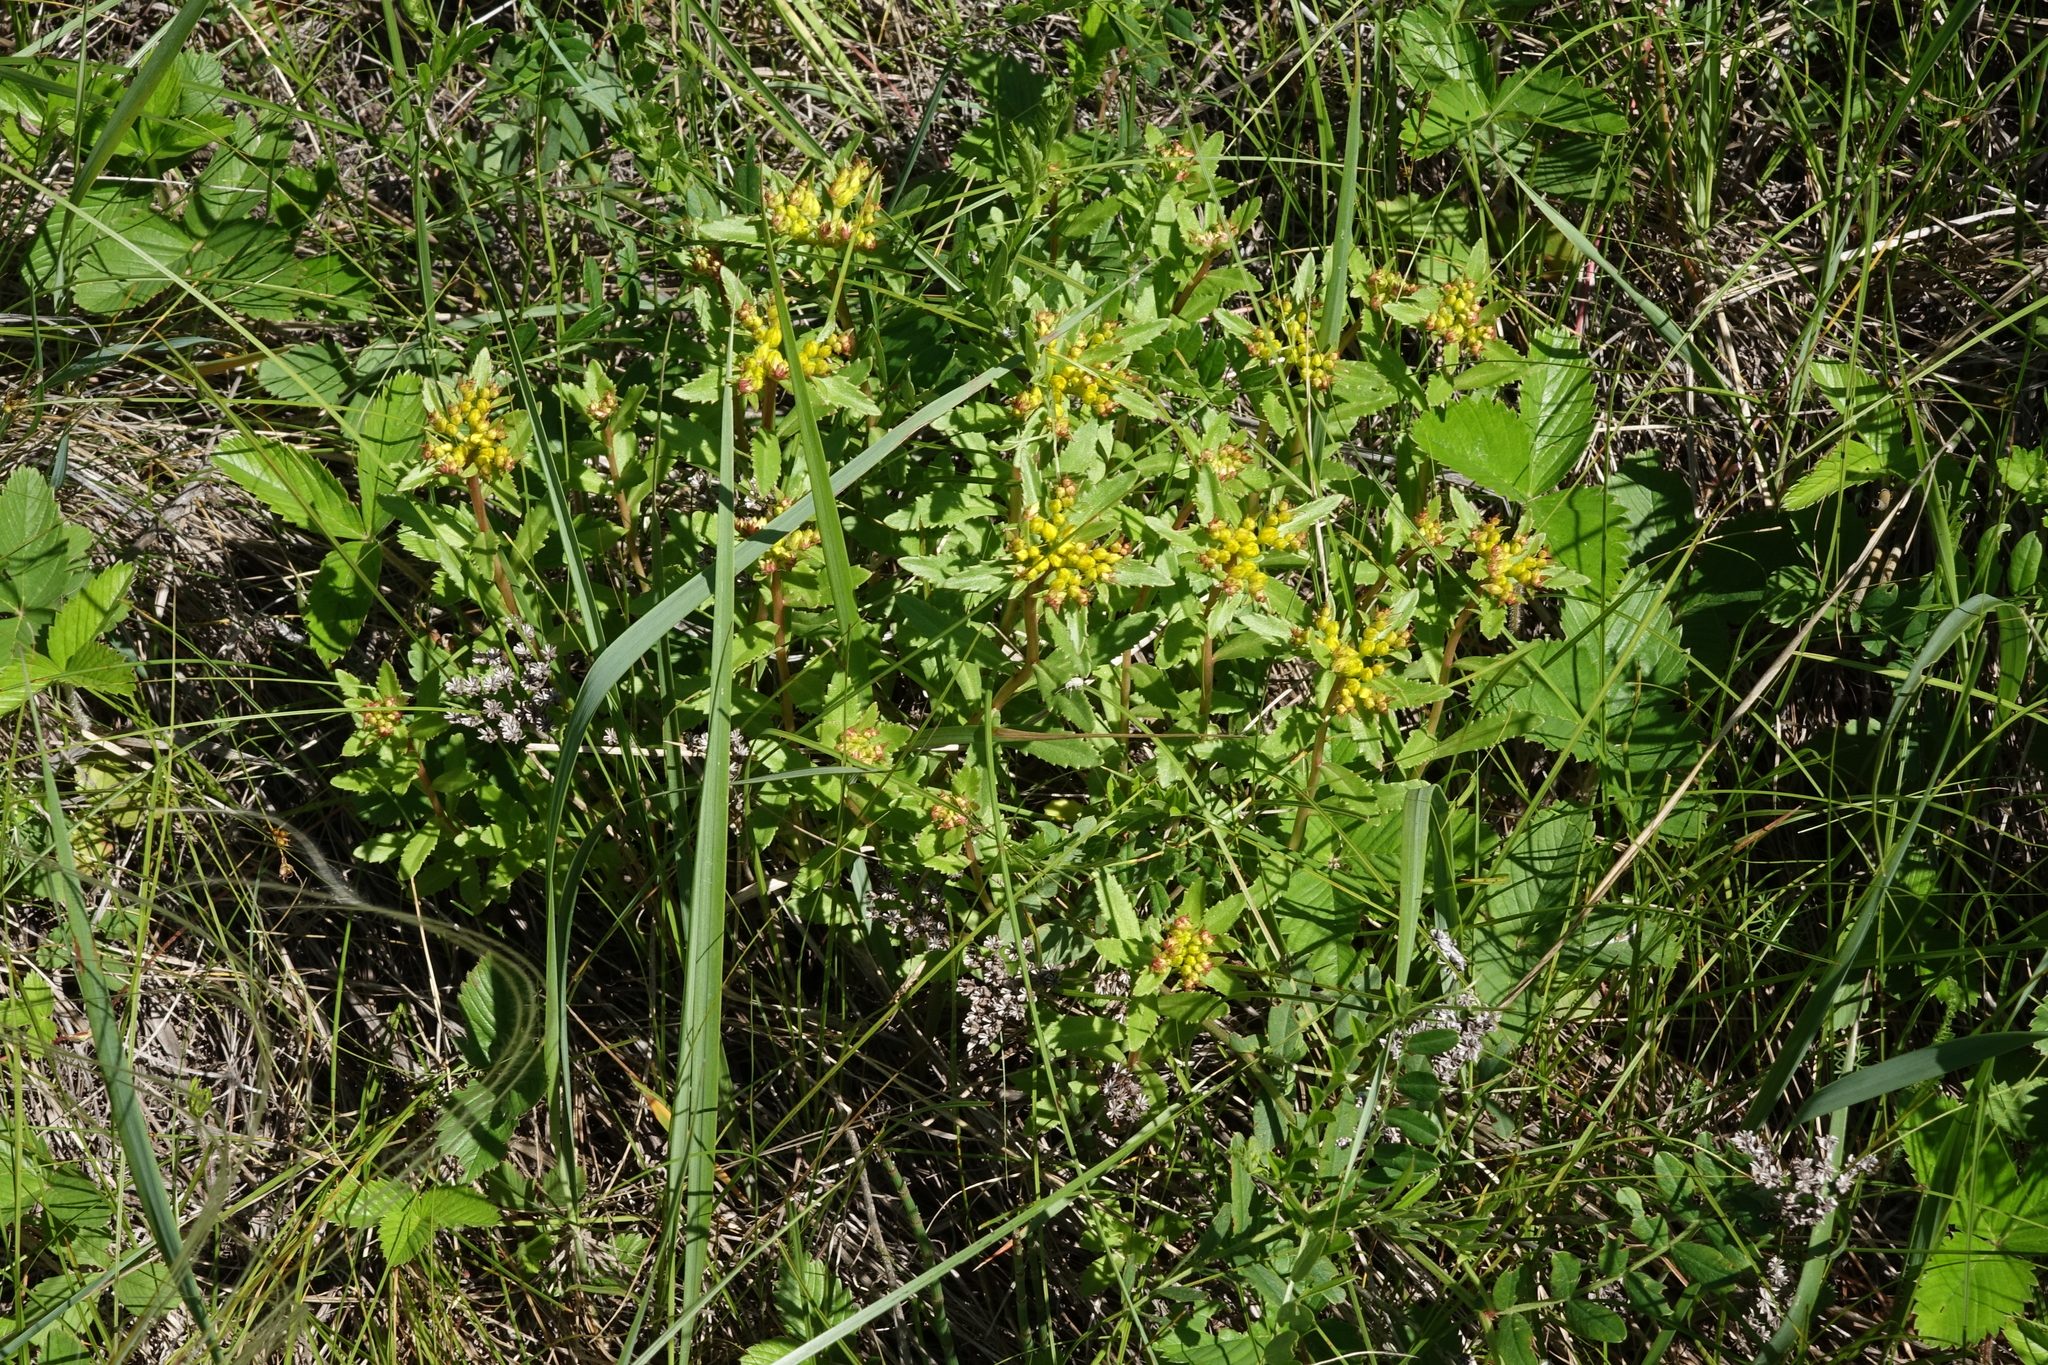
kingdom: Plantae
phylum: Tracheophyta
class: Magnoliopsida
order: Saxifragales
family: Crassulaceae
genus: Phedimus
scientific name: Phedimus aizoon
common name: Orpin aizoon
